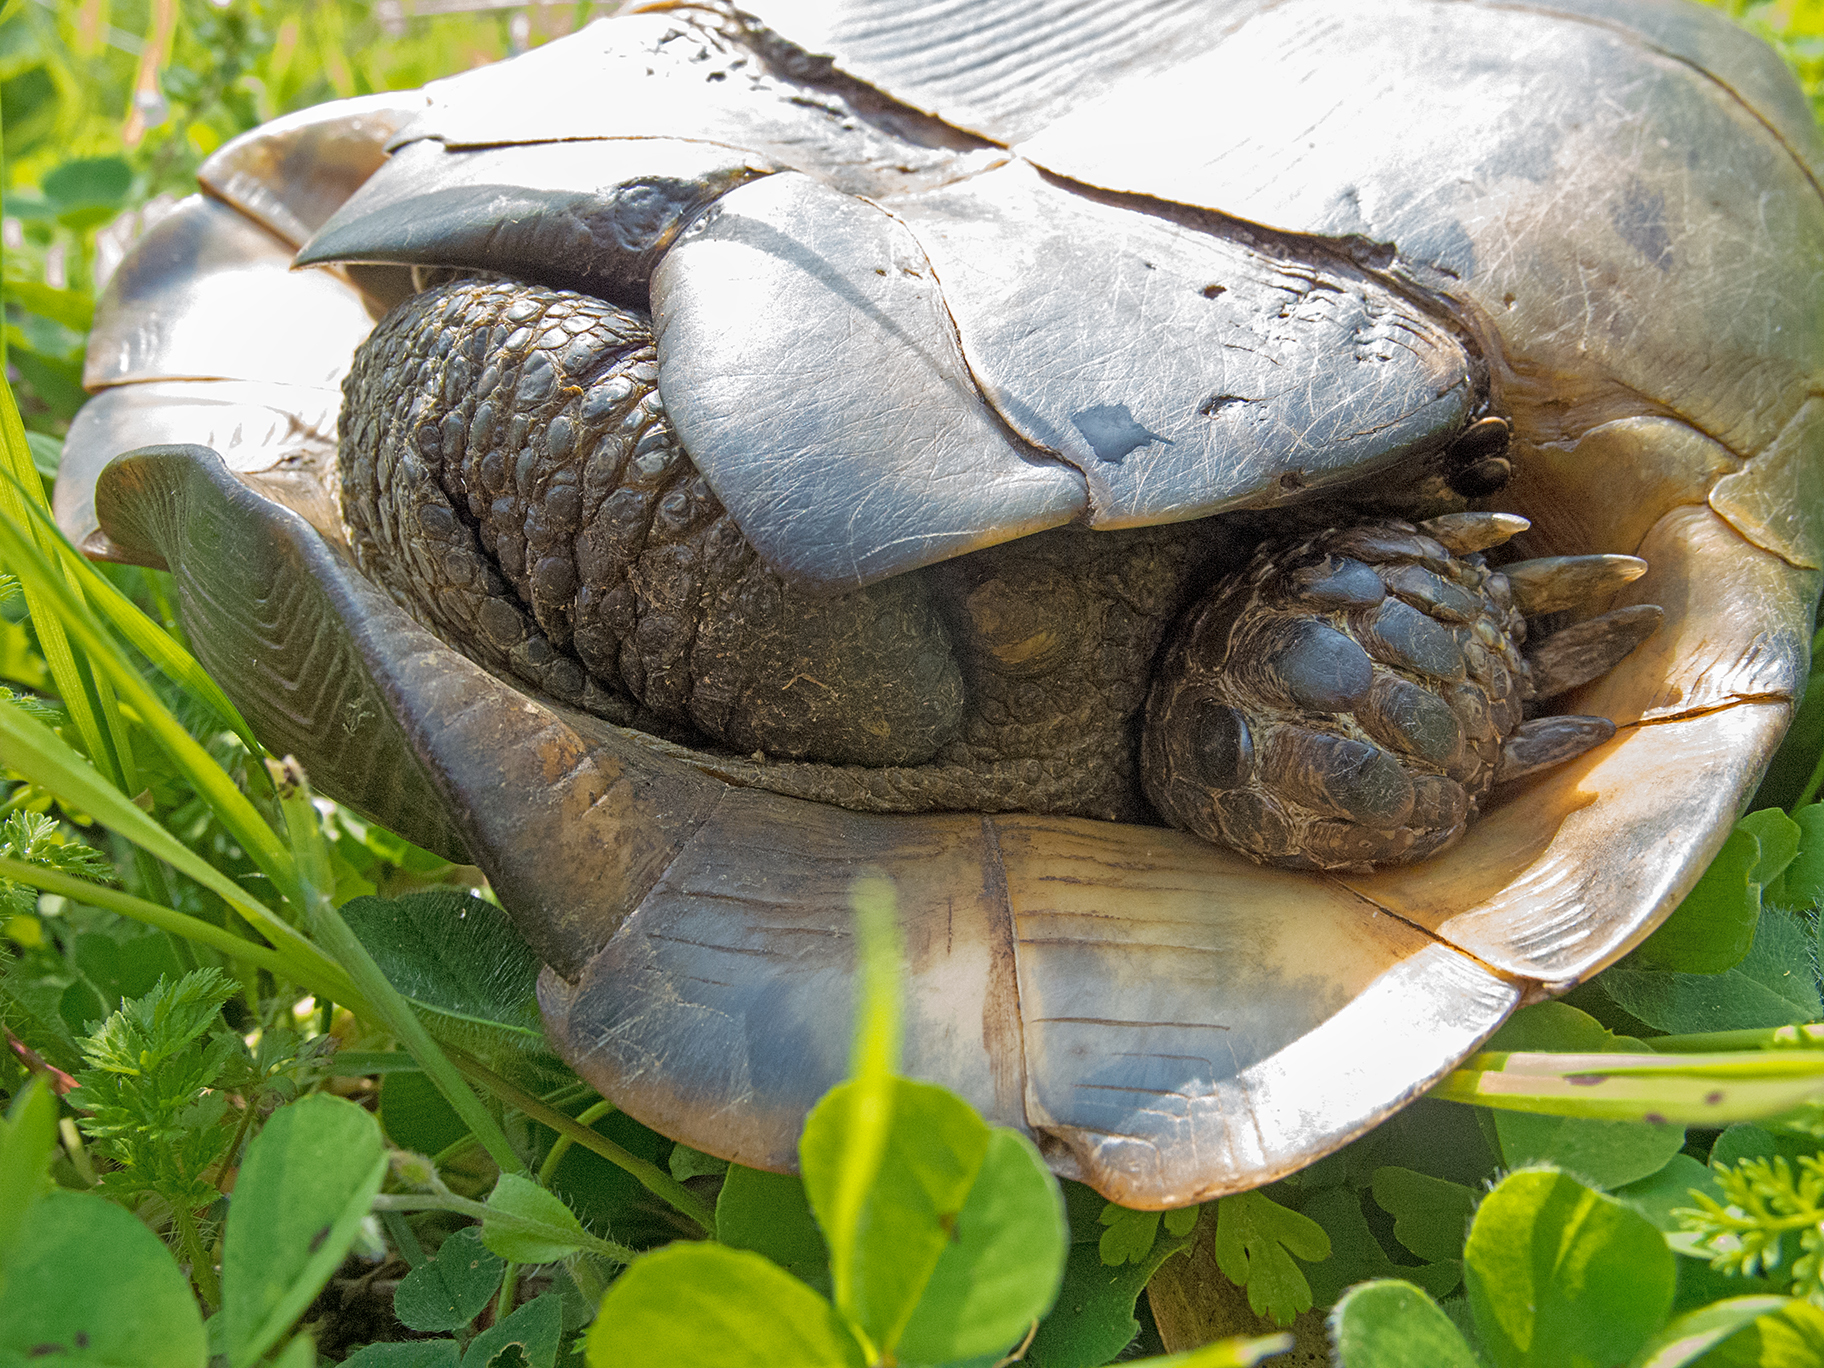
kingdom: Animalia
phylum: Chordata
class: Testudines
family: Testudinidae
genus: Testudo
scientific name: Testudo graeca
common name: Common tortoise
